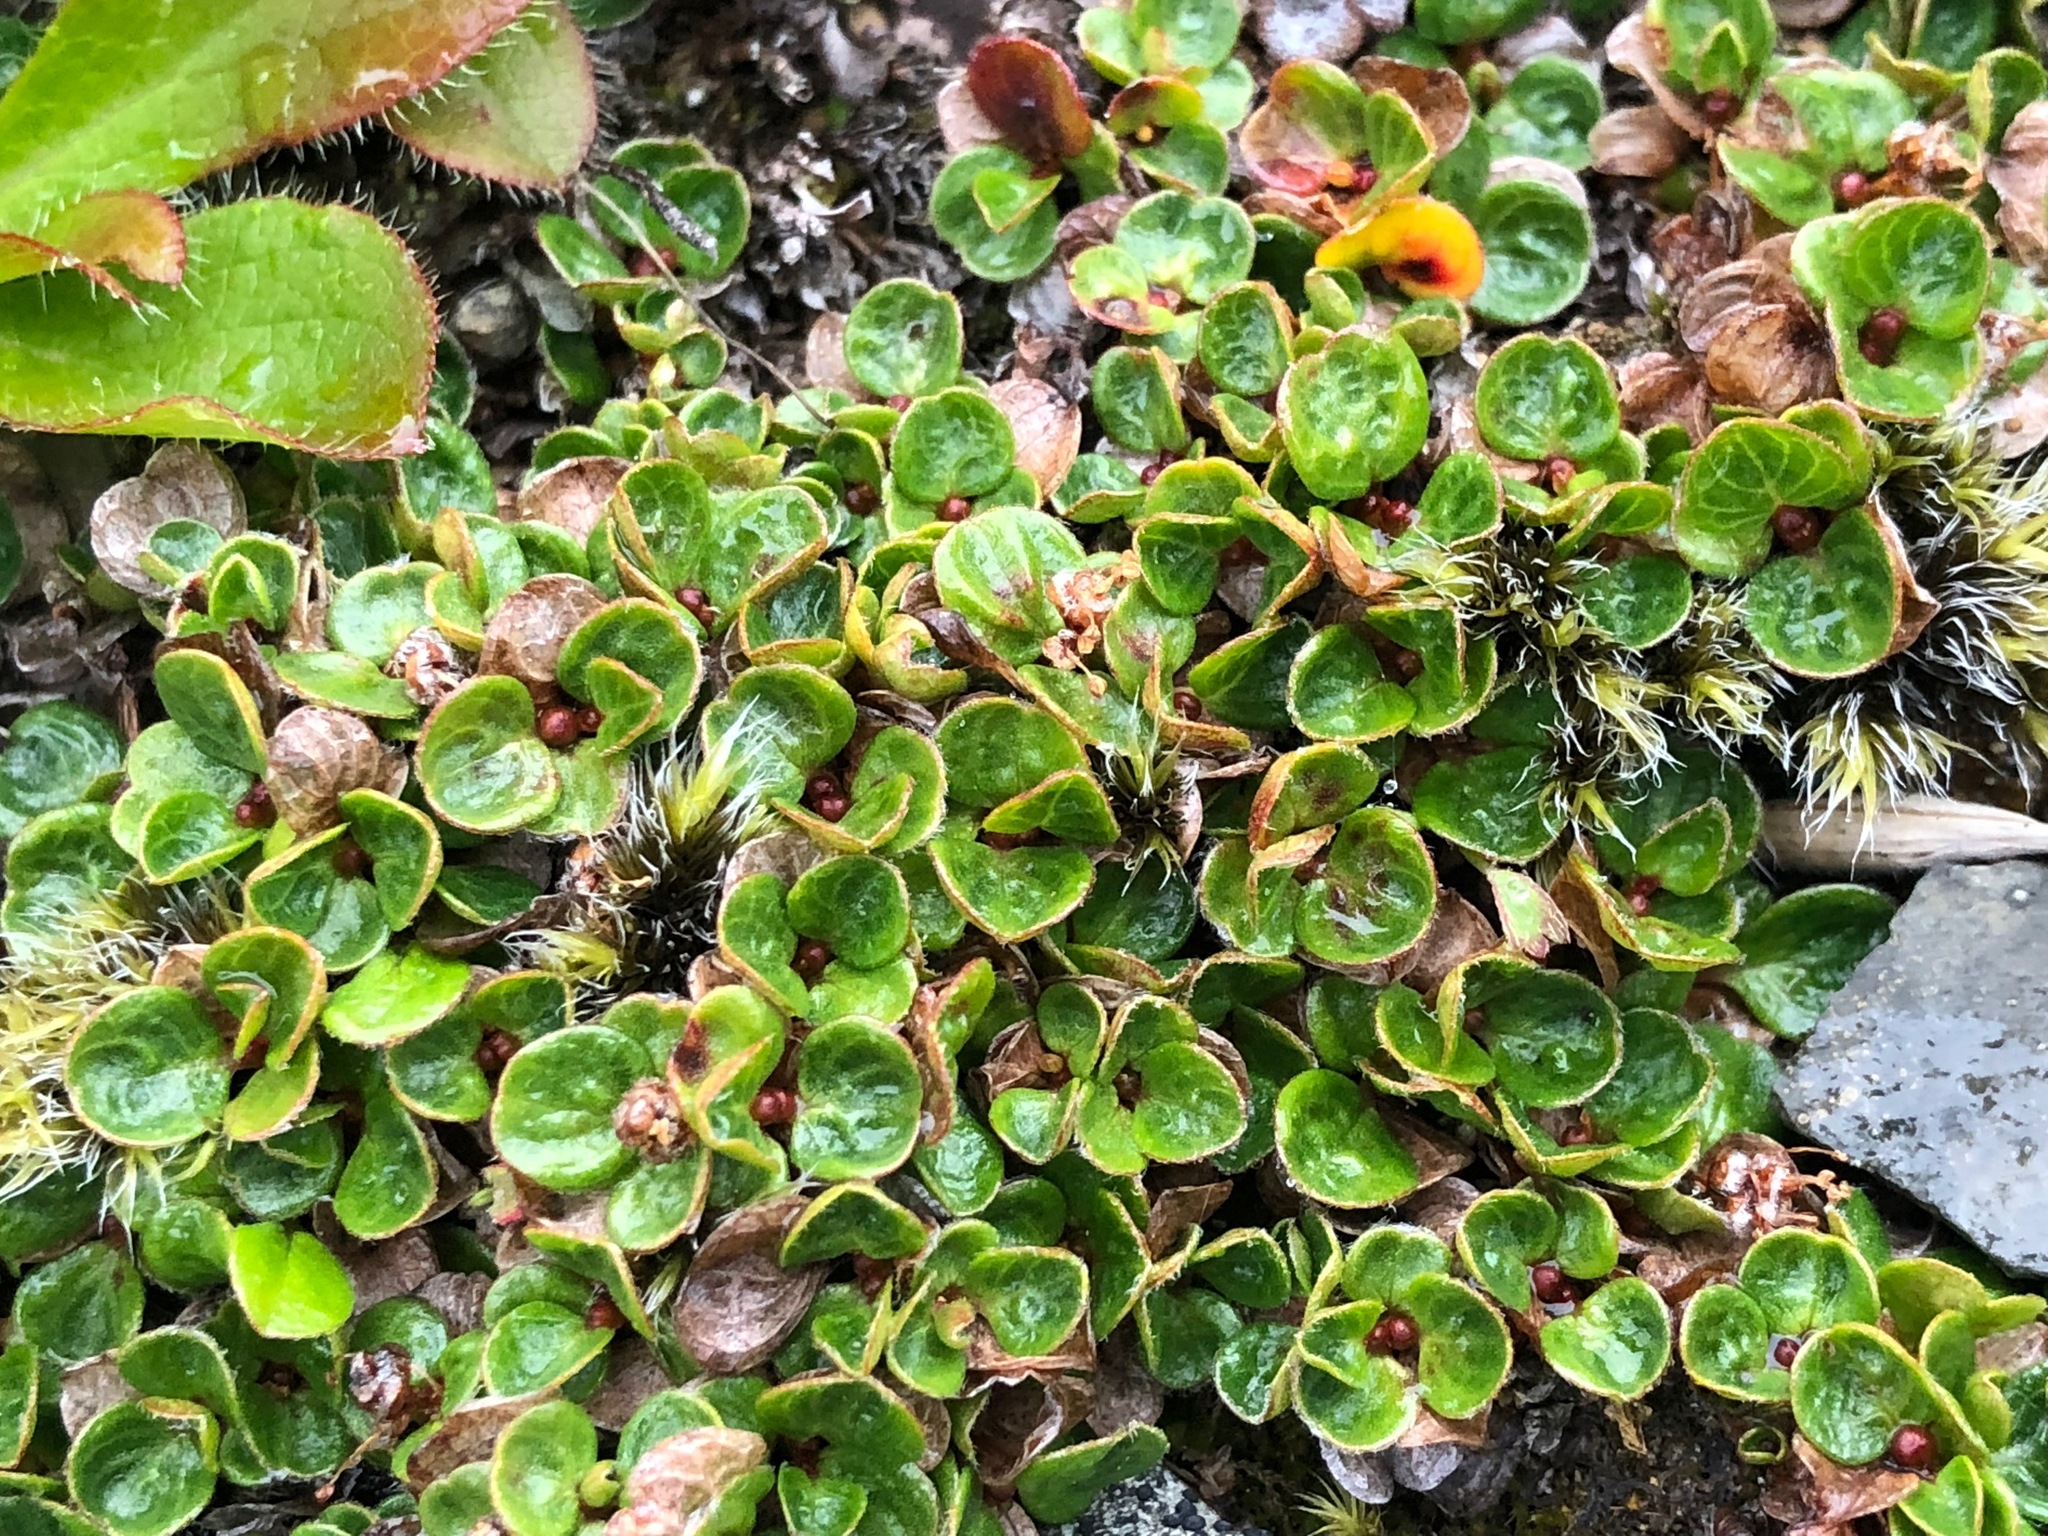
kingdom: Plantae
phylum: Tracheophyta
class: Magnoliopsida
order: Malpighiales
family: Salicaceae
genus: Salix
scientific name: Salix rotundifolia
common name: Least willow
